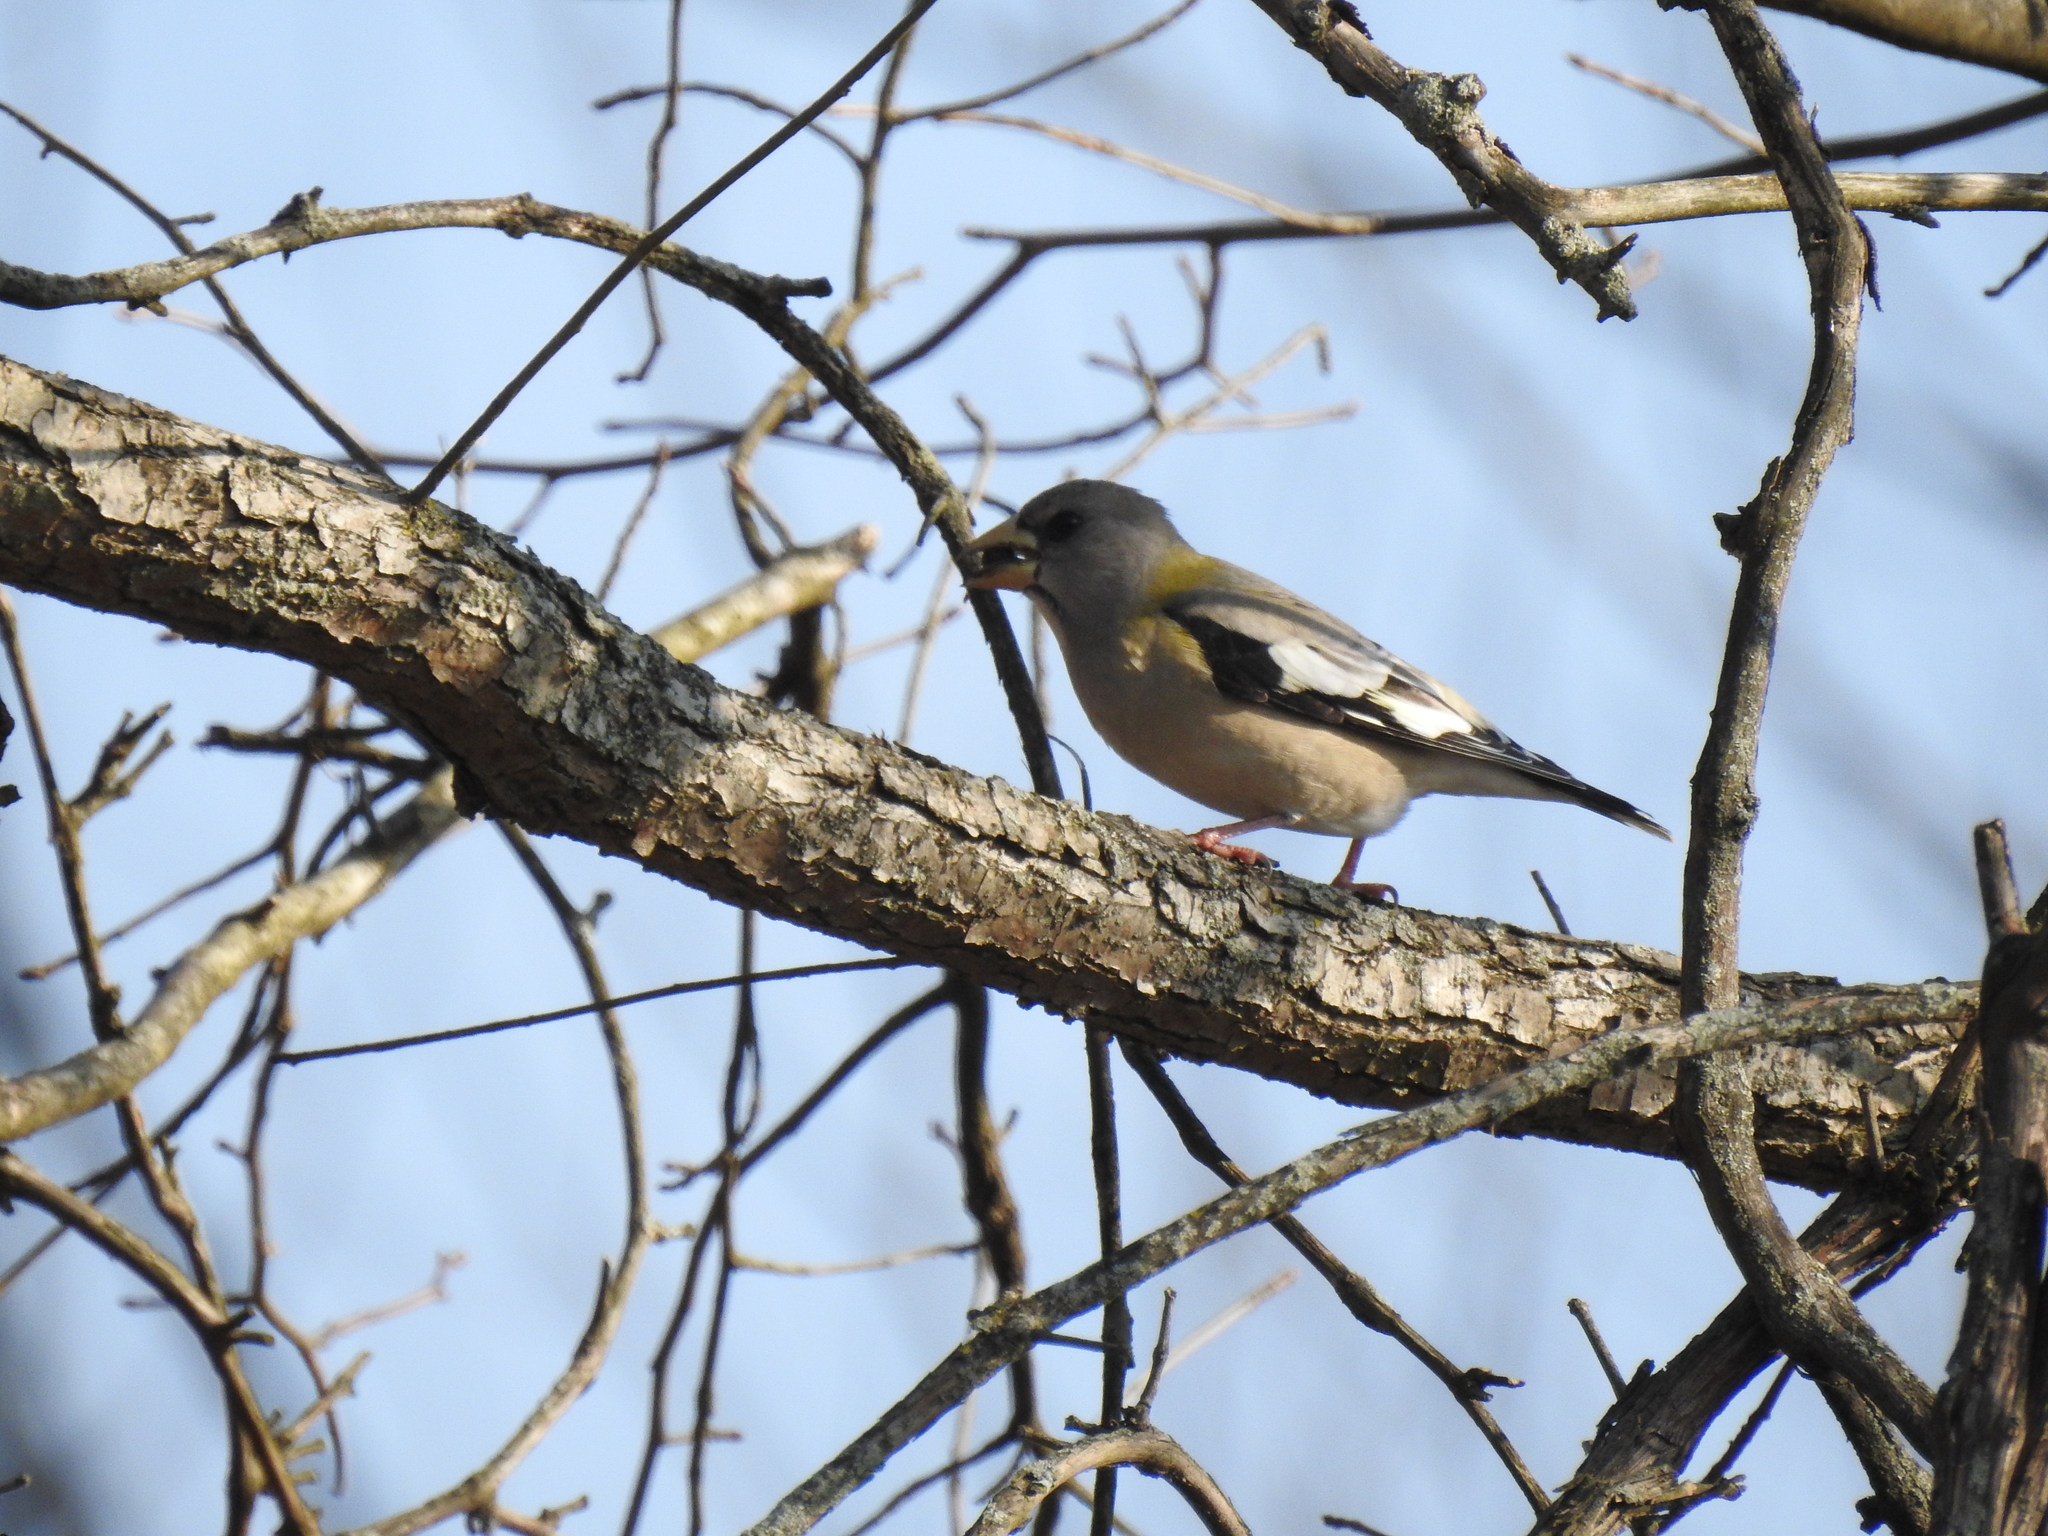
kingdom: Animalia
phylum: Chordata
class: Aves
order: Passeriformes
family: Fringillidae
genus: Hesperiphona
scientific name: Hesperiphona vespertina
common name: Evening grosbeak
